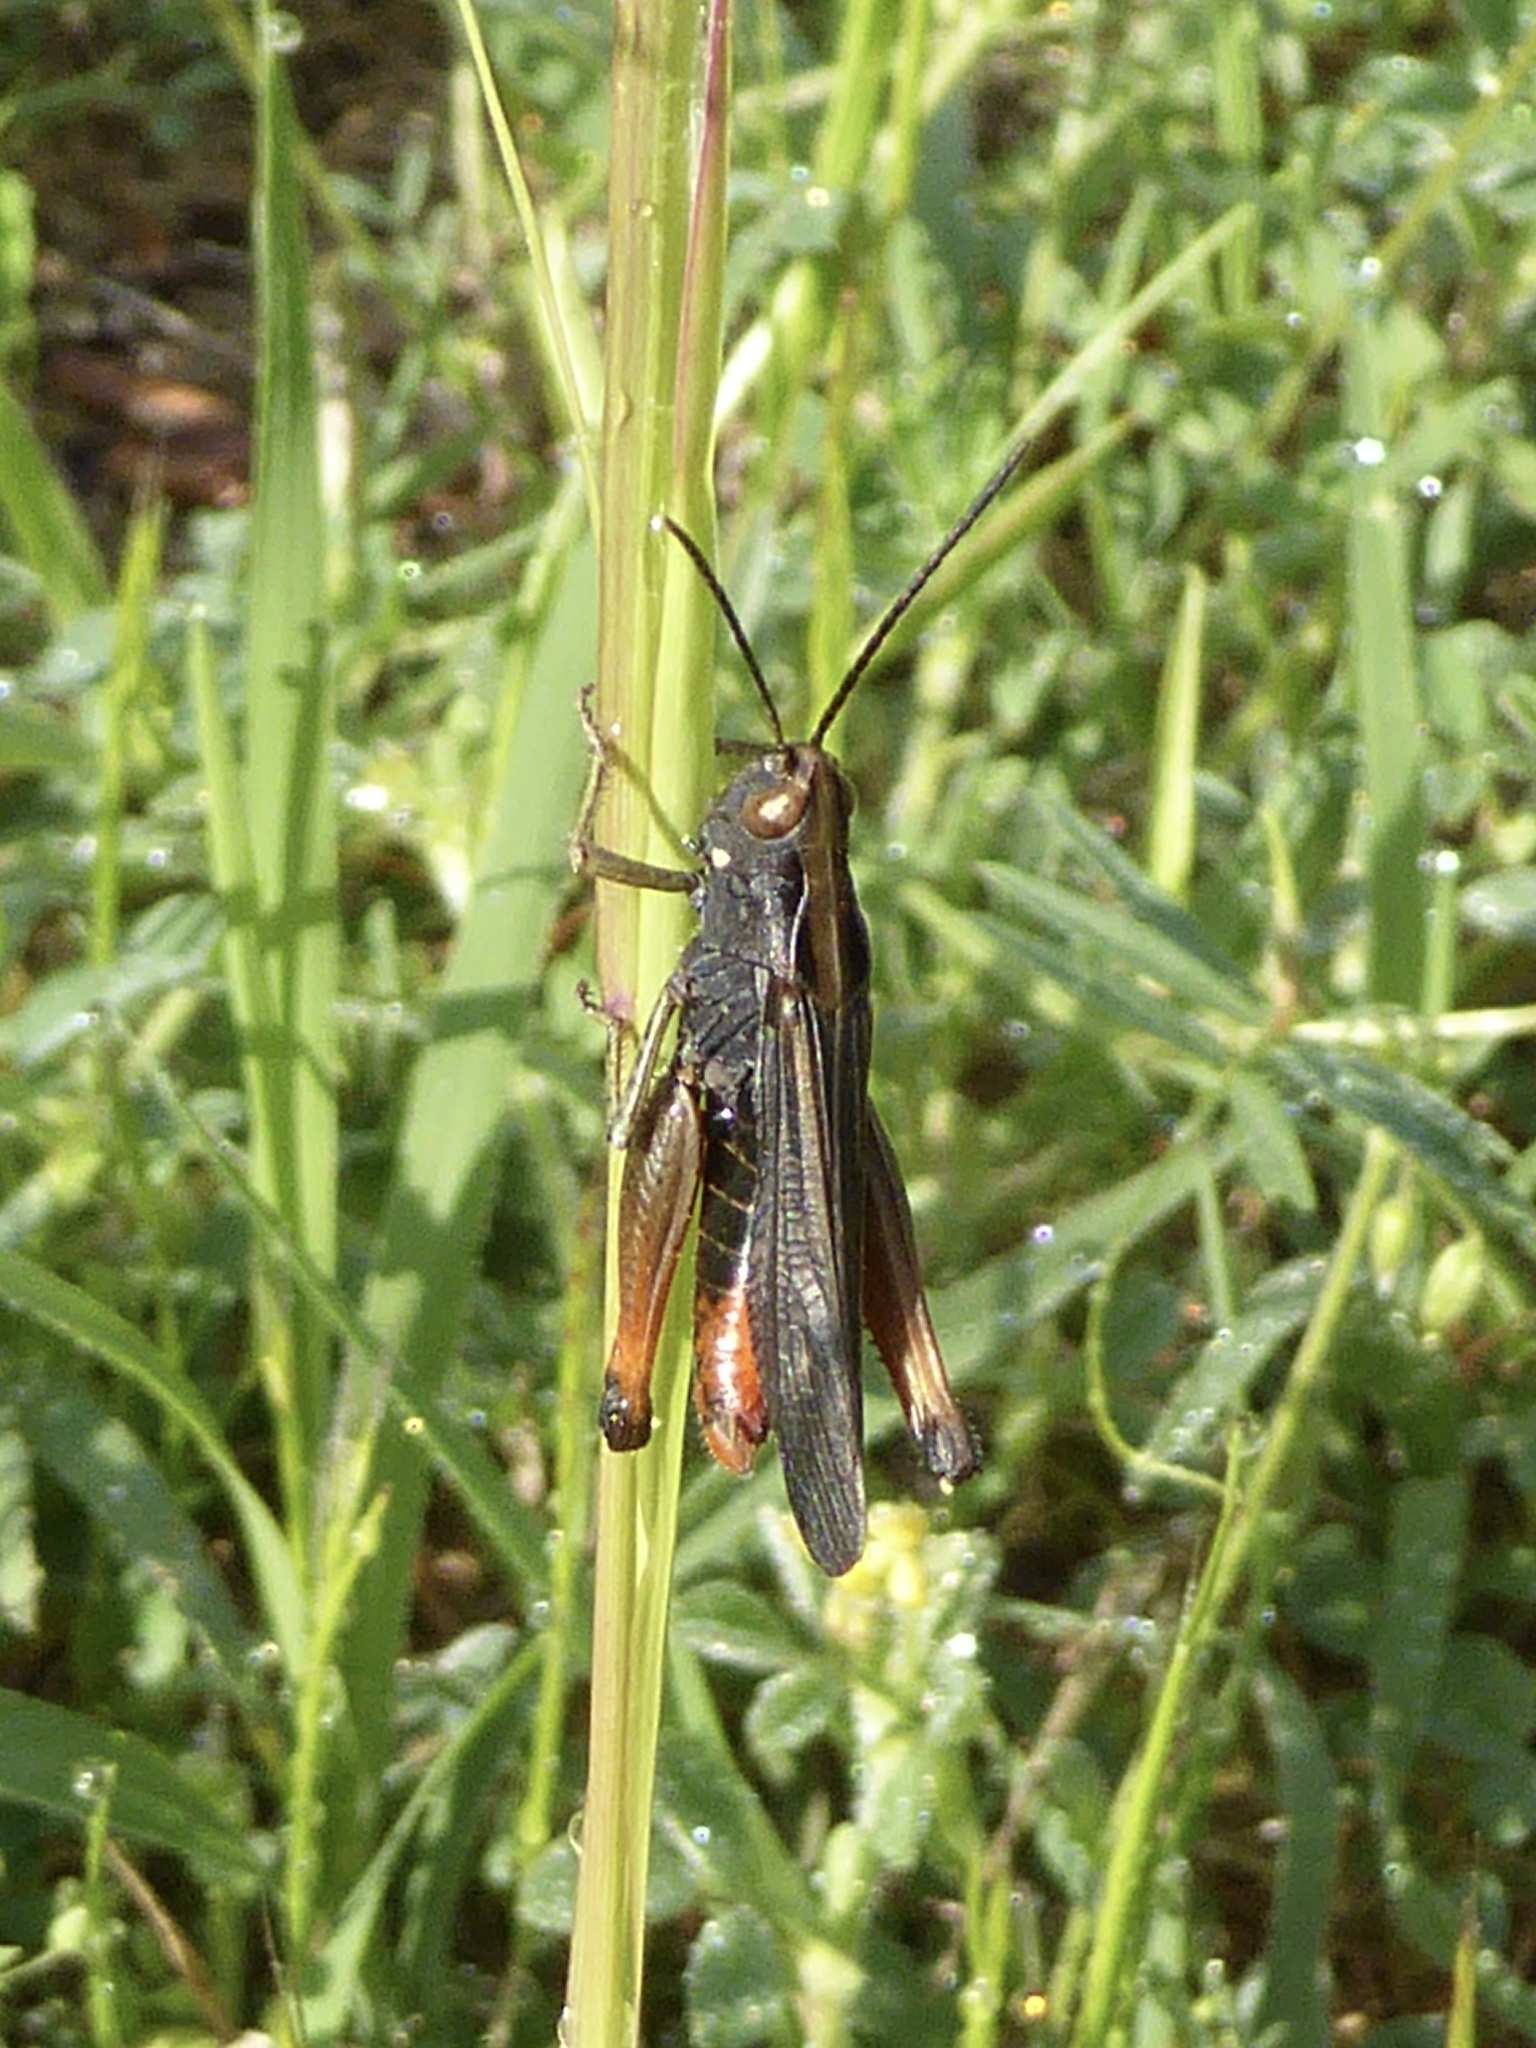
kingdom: Animalia
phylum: Arthropoda
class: Insecta
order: Orthoptera
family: Acrididae
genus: Omocestus
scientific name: Omocestus rufipes
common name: Woodland grasshopper
